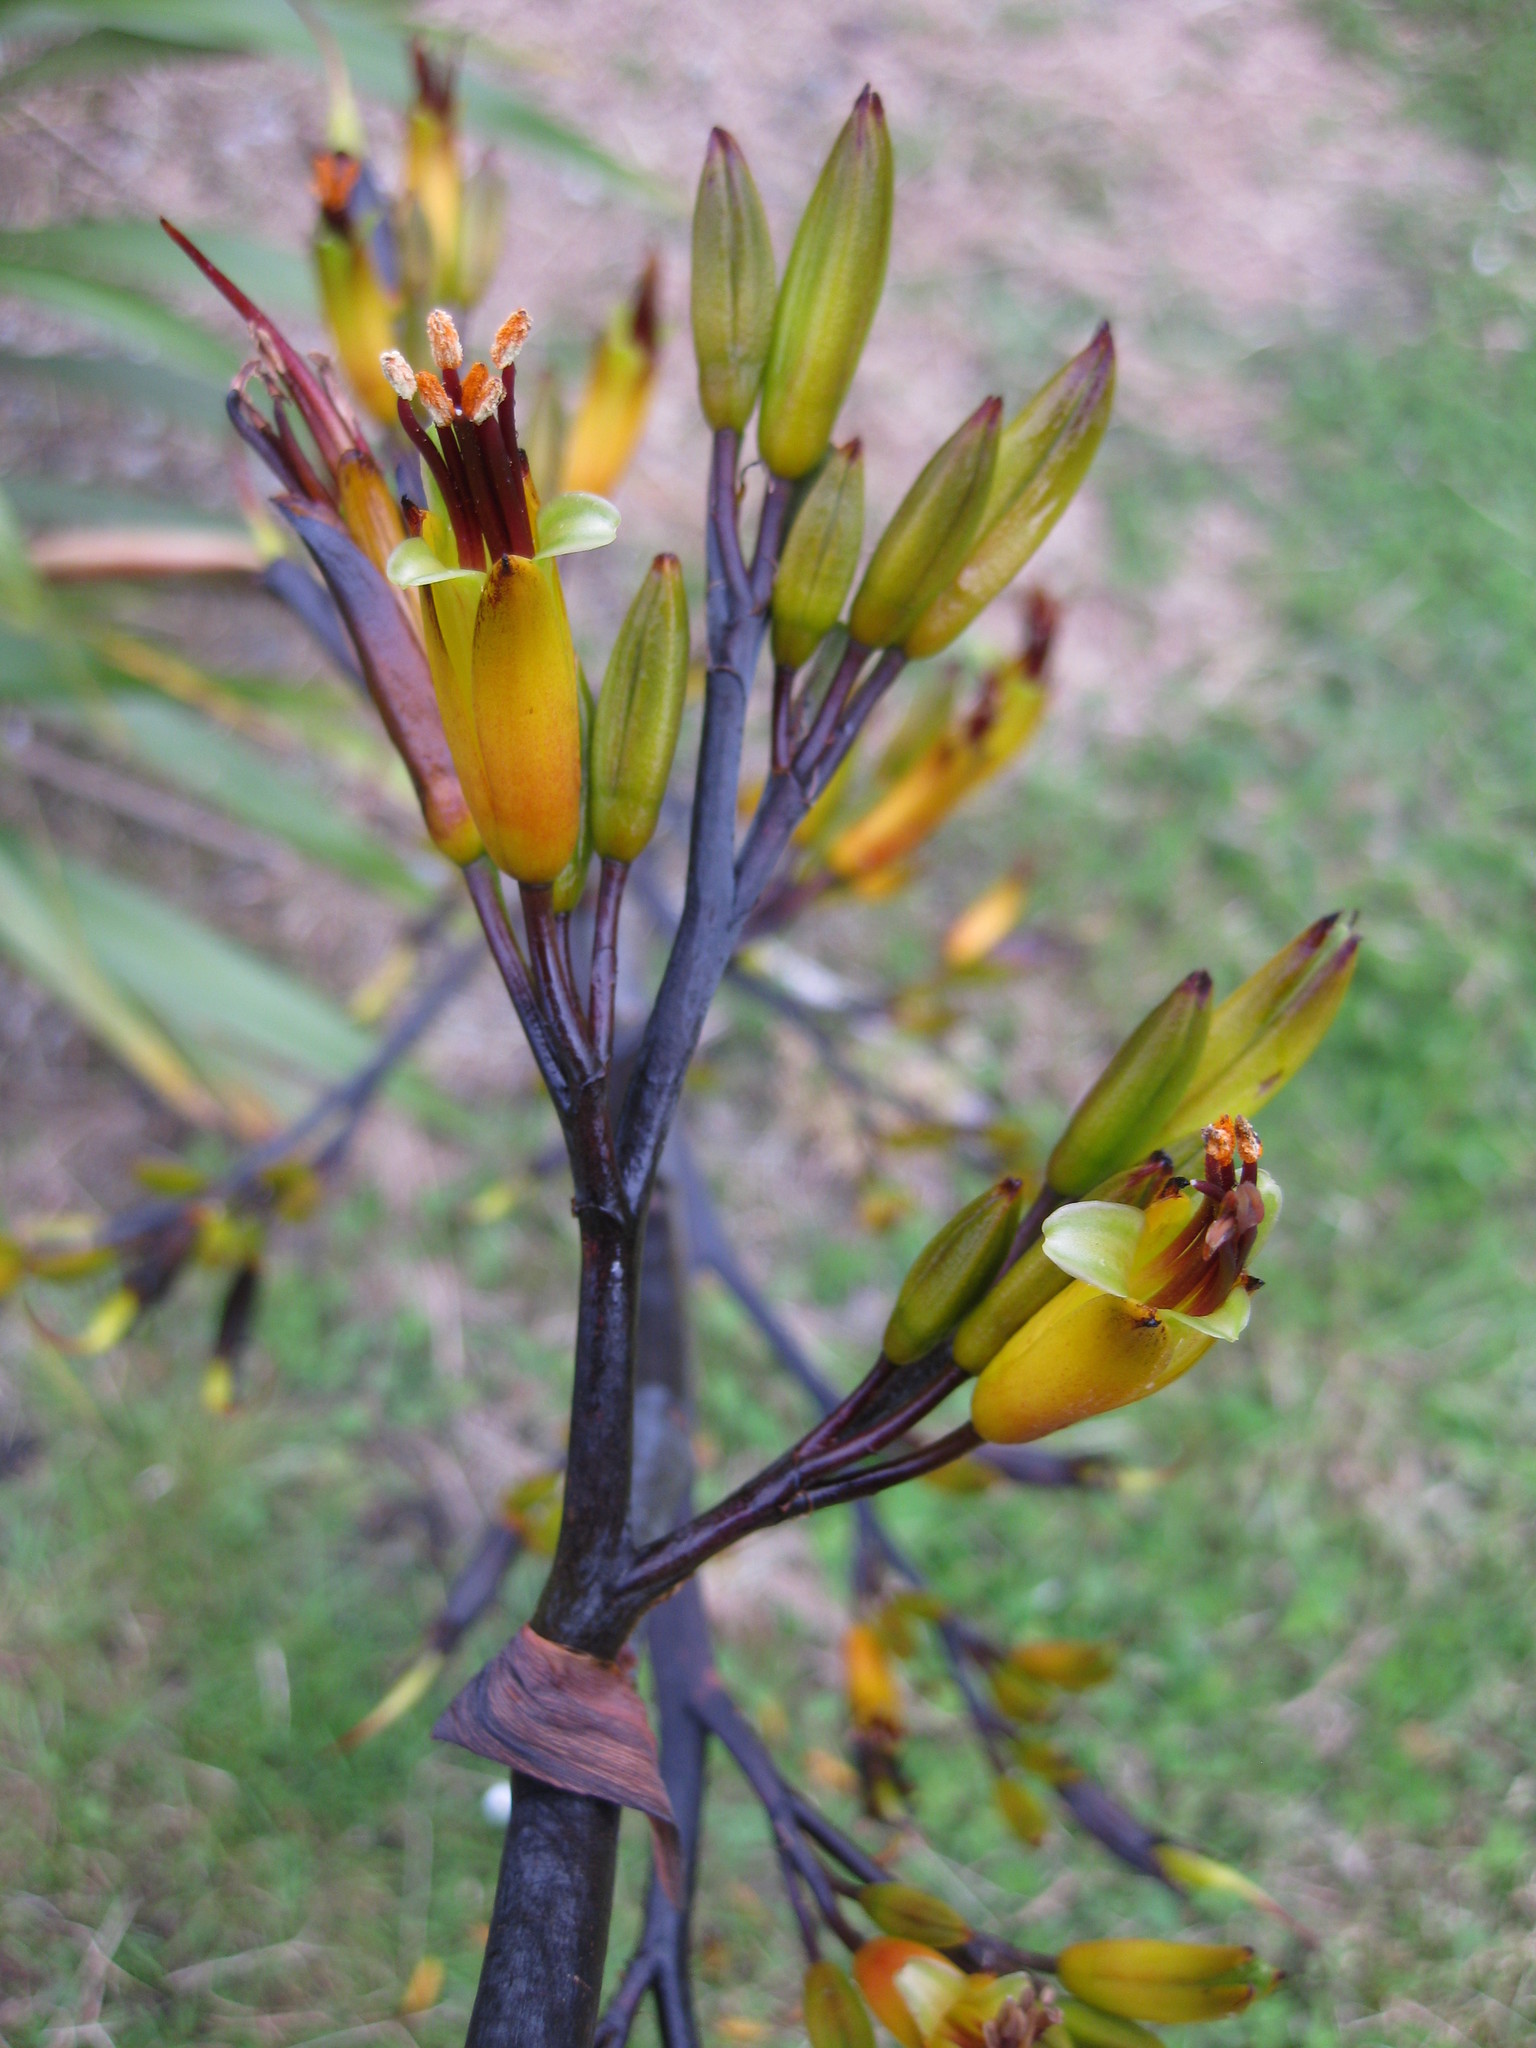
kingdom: Plantae
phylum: Tracheophyta
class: Liliopsida
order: Asparagales
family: Asphodelaceae
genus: Phormium
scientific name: Phormium colensoi
